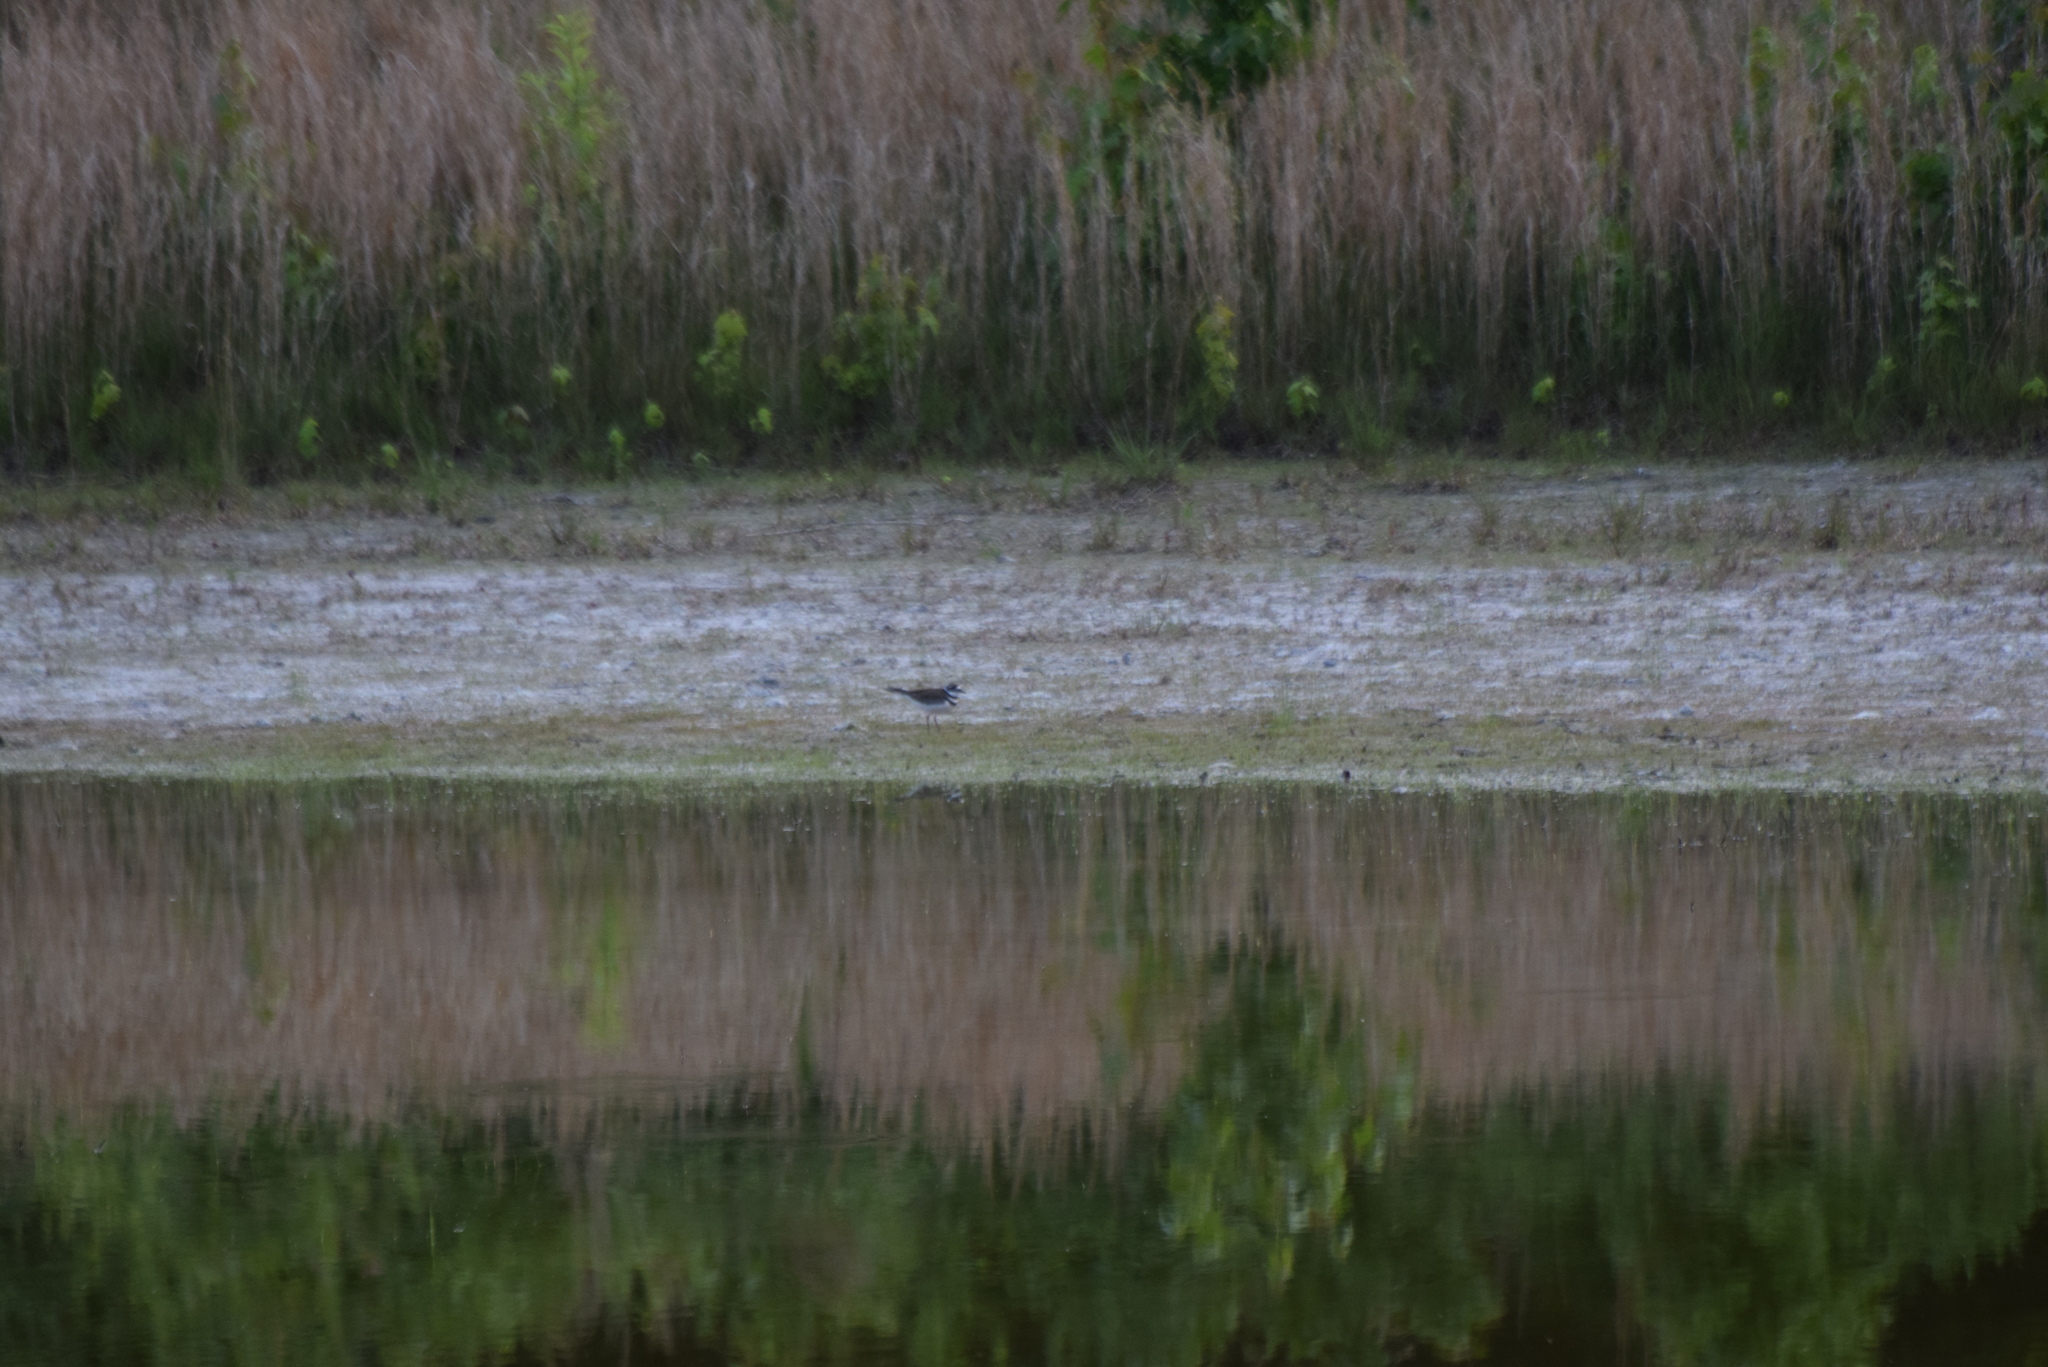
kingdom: Animalia
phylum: Chordata
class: Aves
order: Charadriiformes
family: Charadriidae
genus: Charadrius
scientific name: Charadrius vociferus
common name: Killdeer
